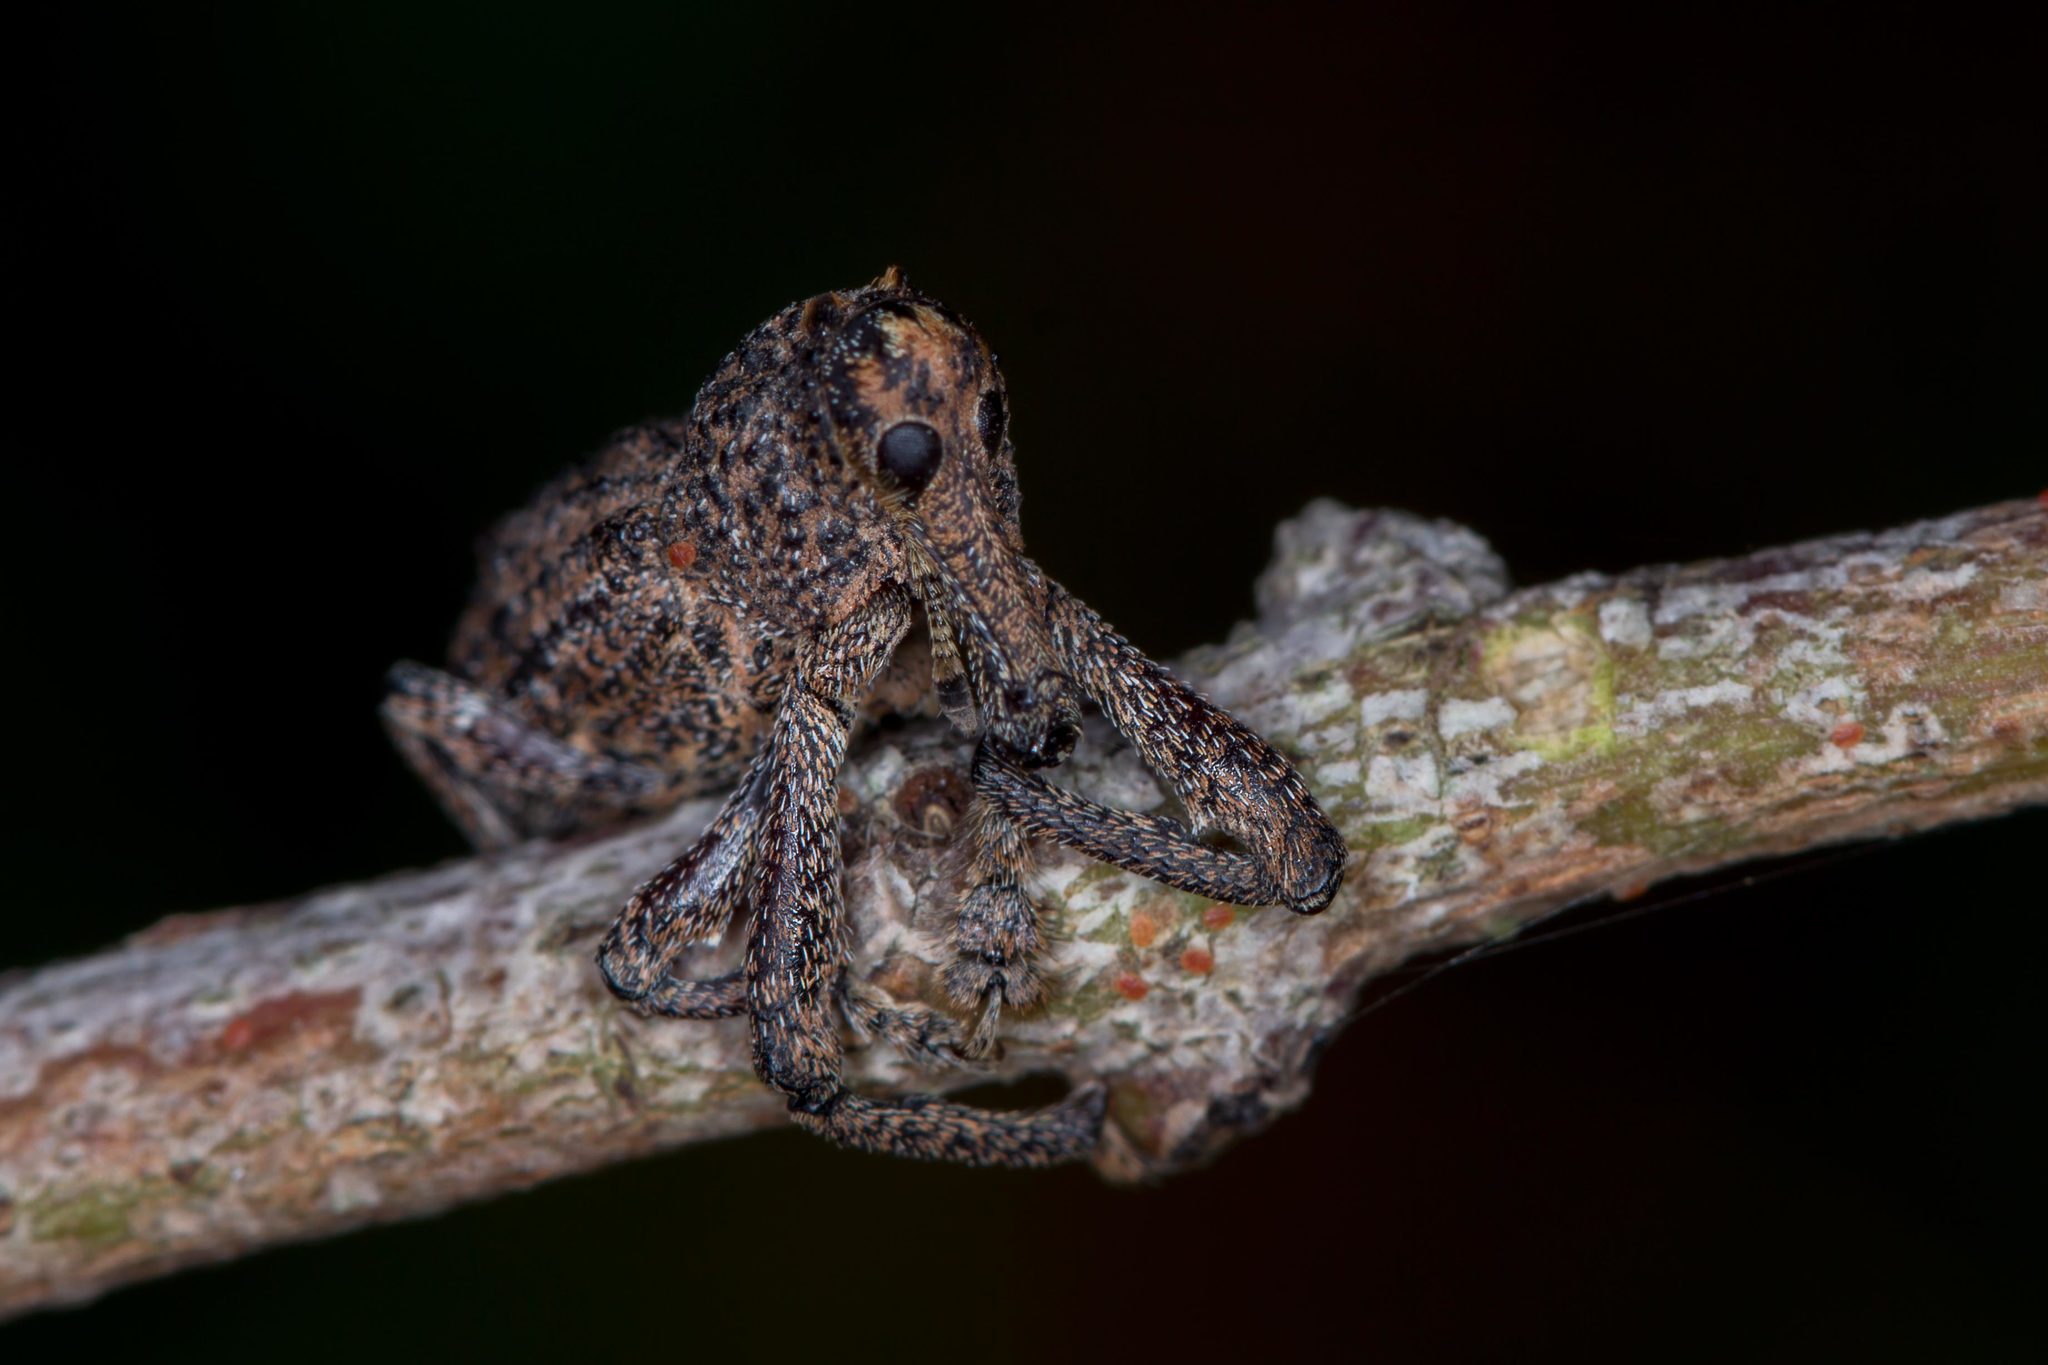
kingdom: Animalia
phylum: Arthropoda
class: Insecta
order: Coleoptera
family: Curculionidae
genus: Orthorhinus
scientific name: Orthorhinus cylindrirostris
